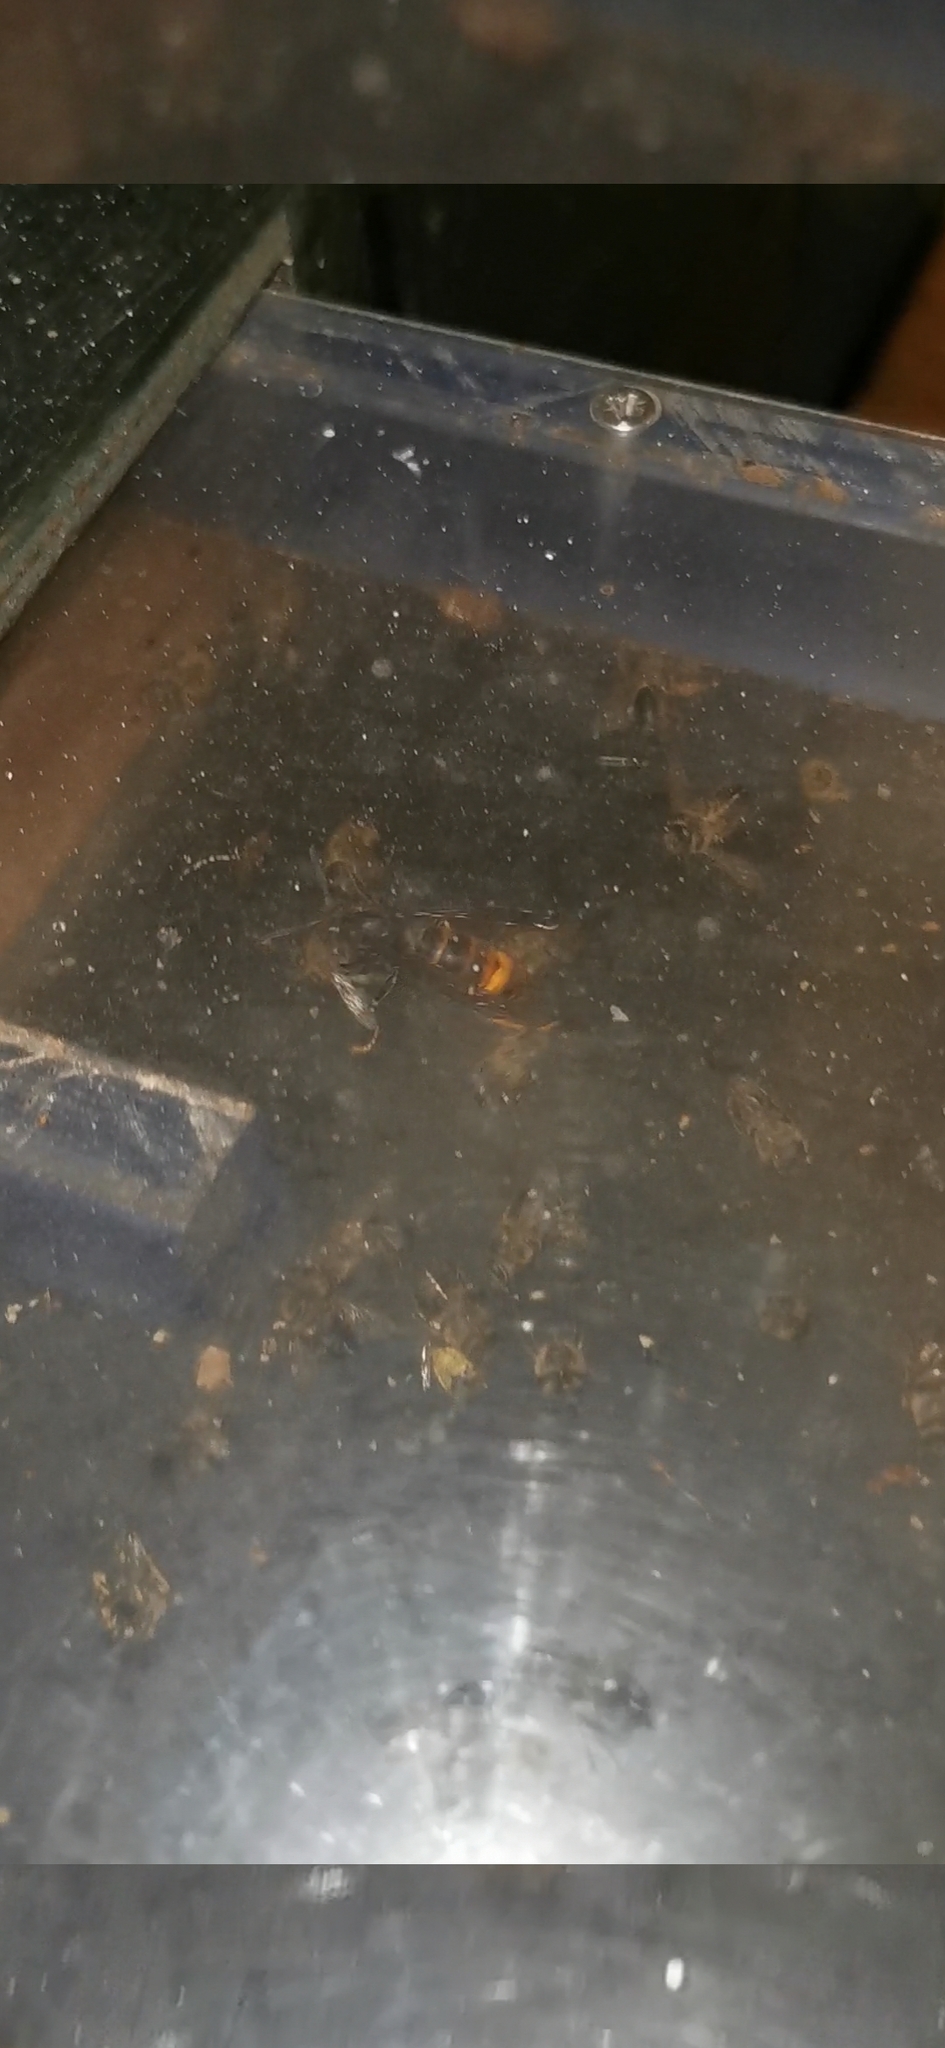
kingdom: Animalia
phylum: Arthropoda
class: Insecta
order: Hymenoptera
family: Vespidae
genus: Vespa
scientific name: Vespa velutina
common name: Asian hornet
